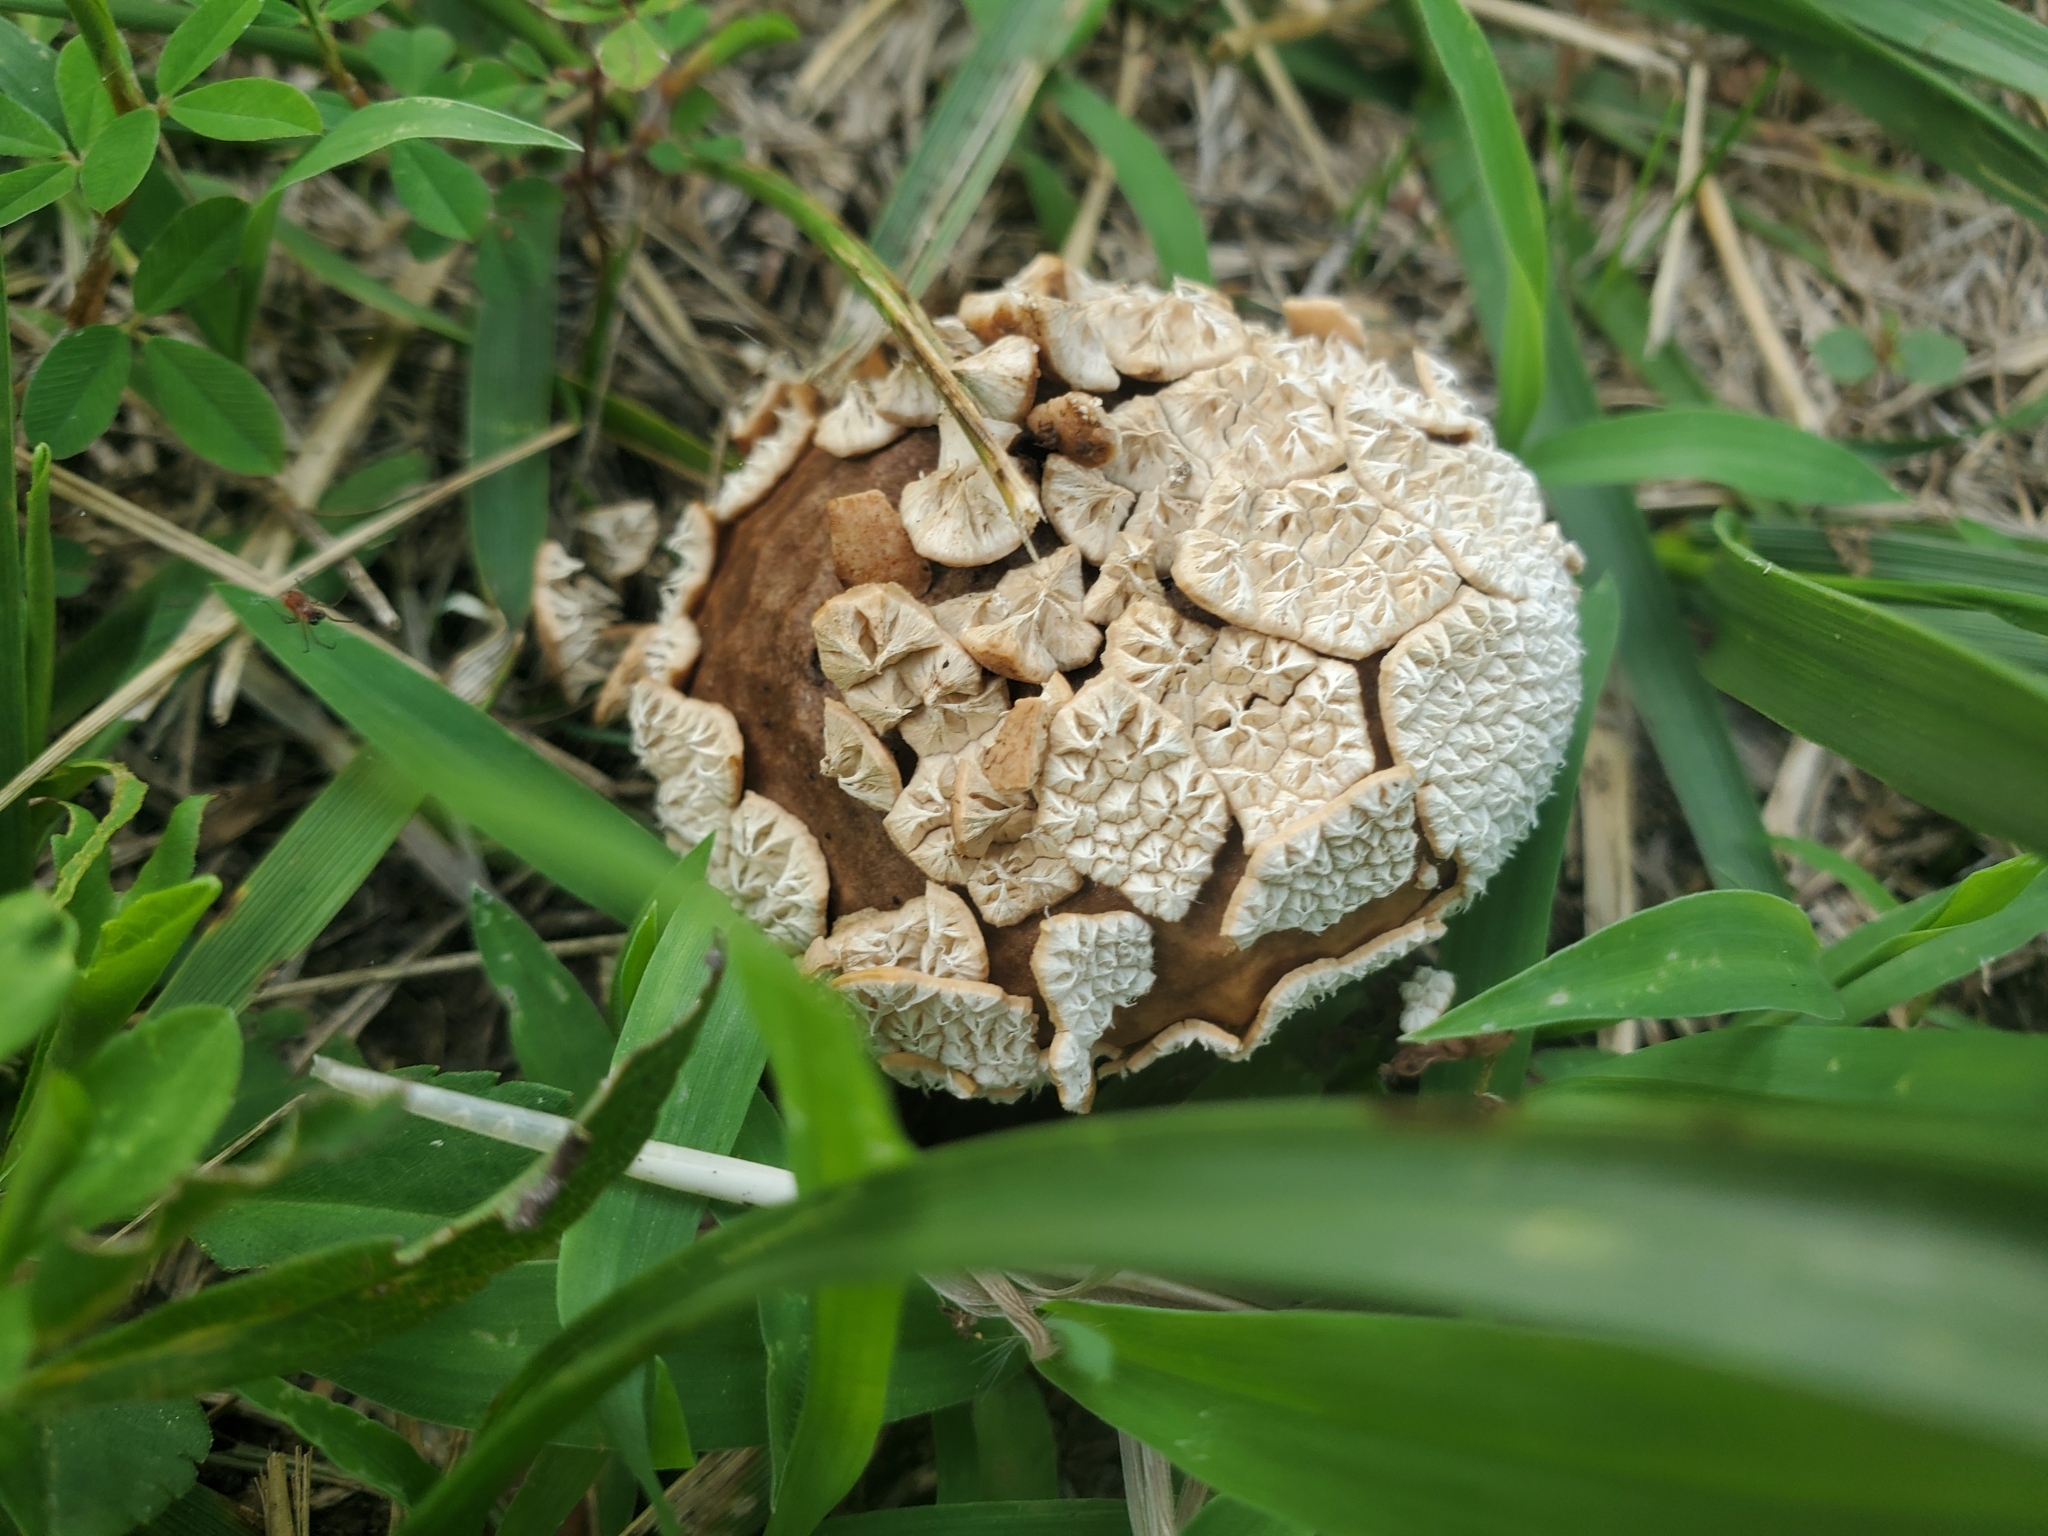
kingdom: Fungi
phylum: Basidiomycota
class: Agaricomycetes
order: Agaricales
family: Agaricaceae
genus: Lycoperdon
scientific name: Lycoperdon marginatum
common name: Peeling puffball
